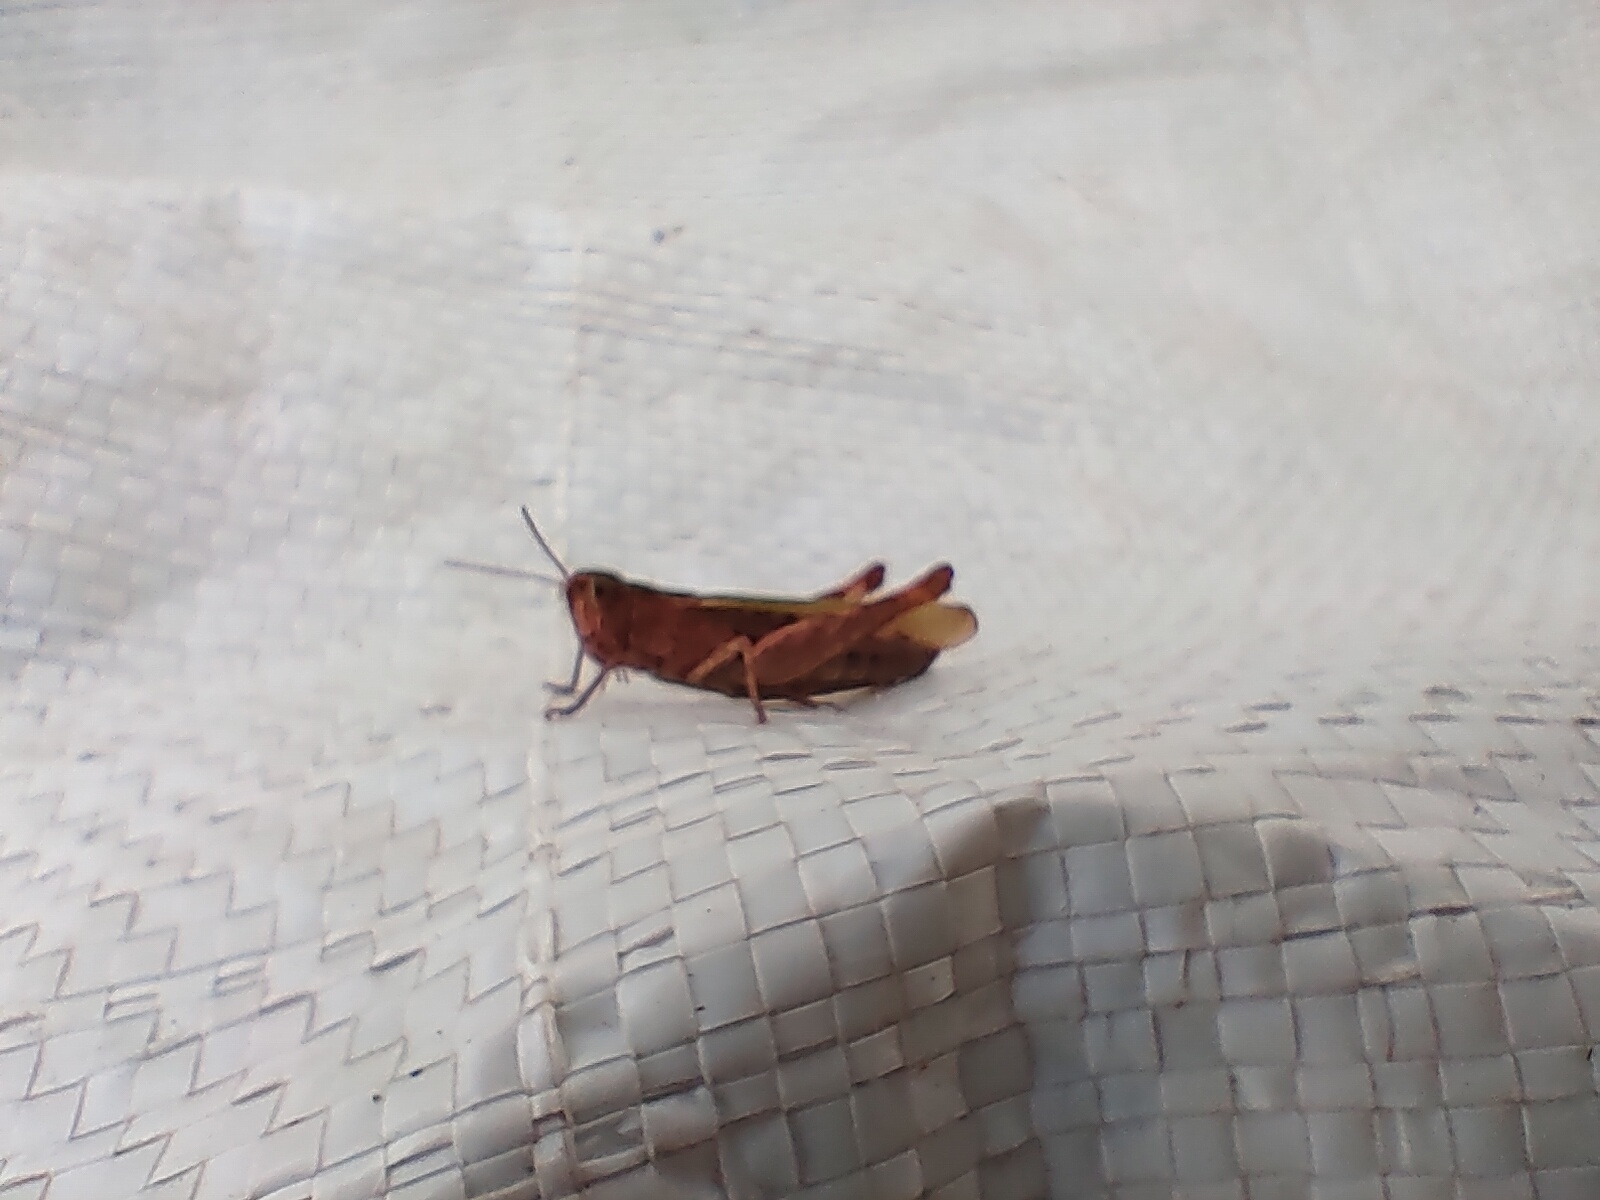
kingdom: Animalia
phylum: Arthropoda
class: Insecta
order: Orthoptera
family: Acrididae
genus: Chorthippus
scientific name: Chorthippus brunneus
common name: Field grasshopper
